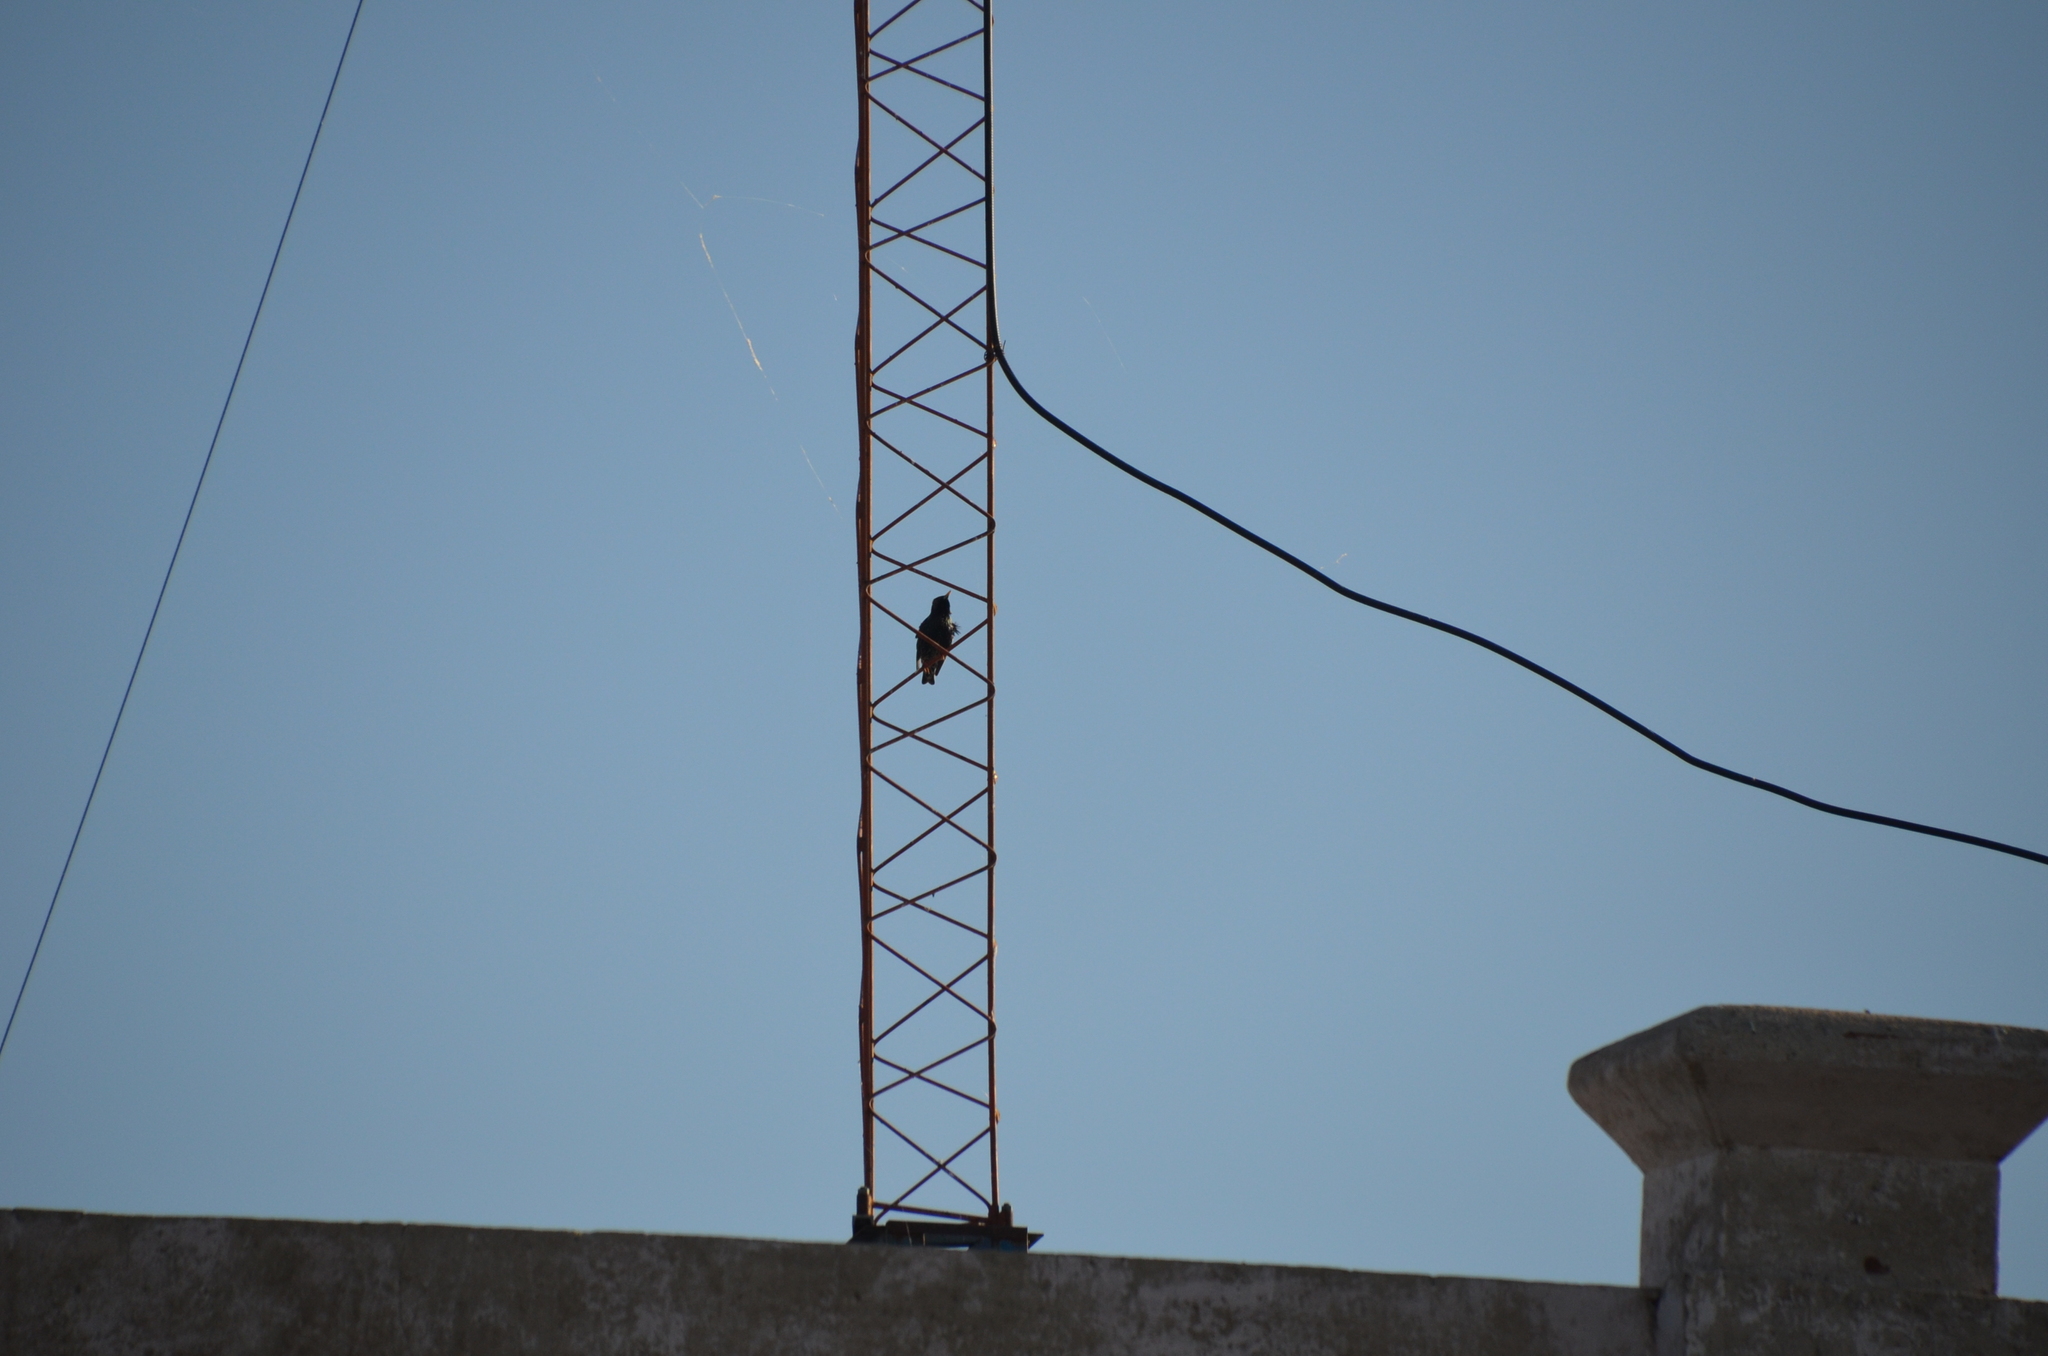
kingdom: Animalia
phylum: Chordata
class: Aves
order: Passeriformes
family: Sturnidae
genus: Sturnus
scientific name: Sturnus vulgaris
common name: Common starling
